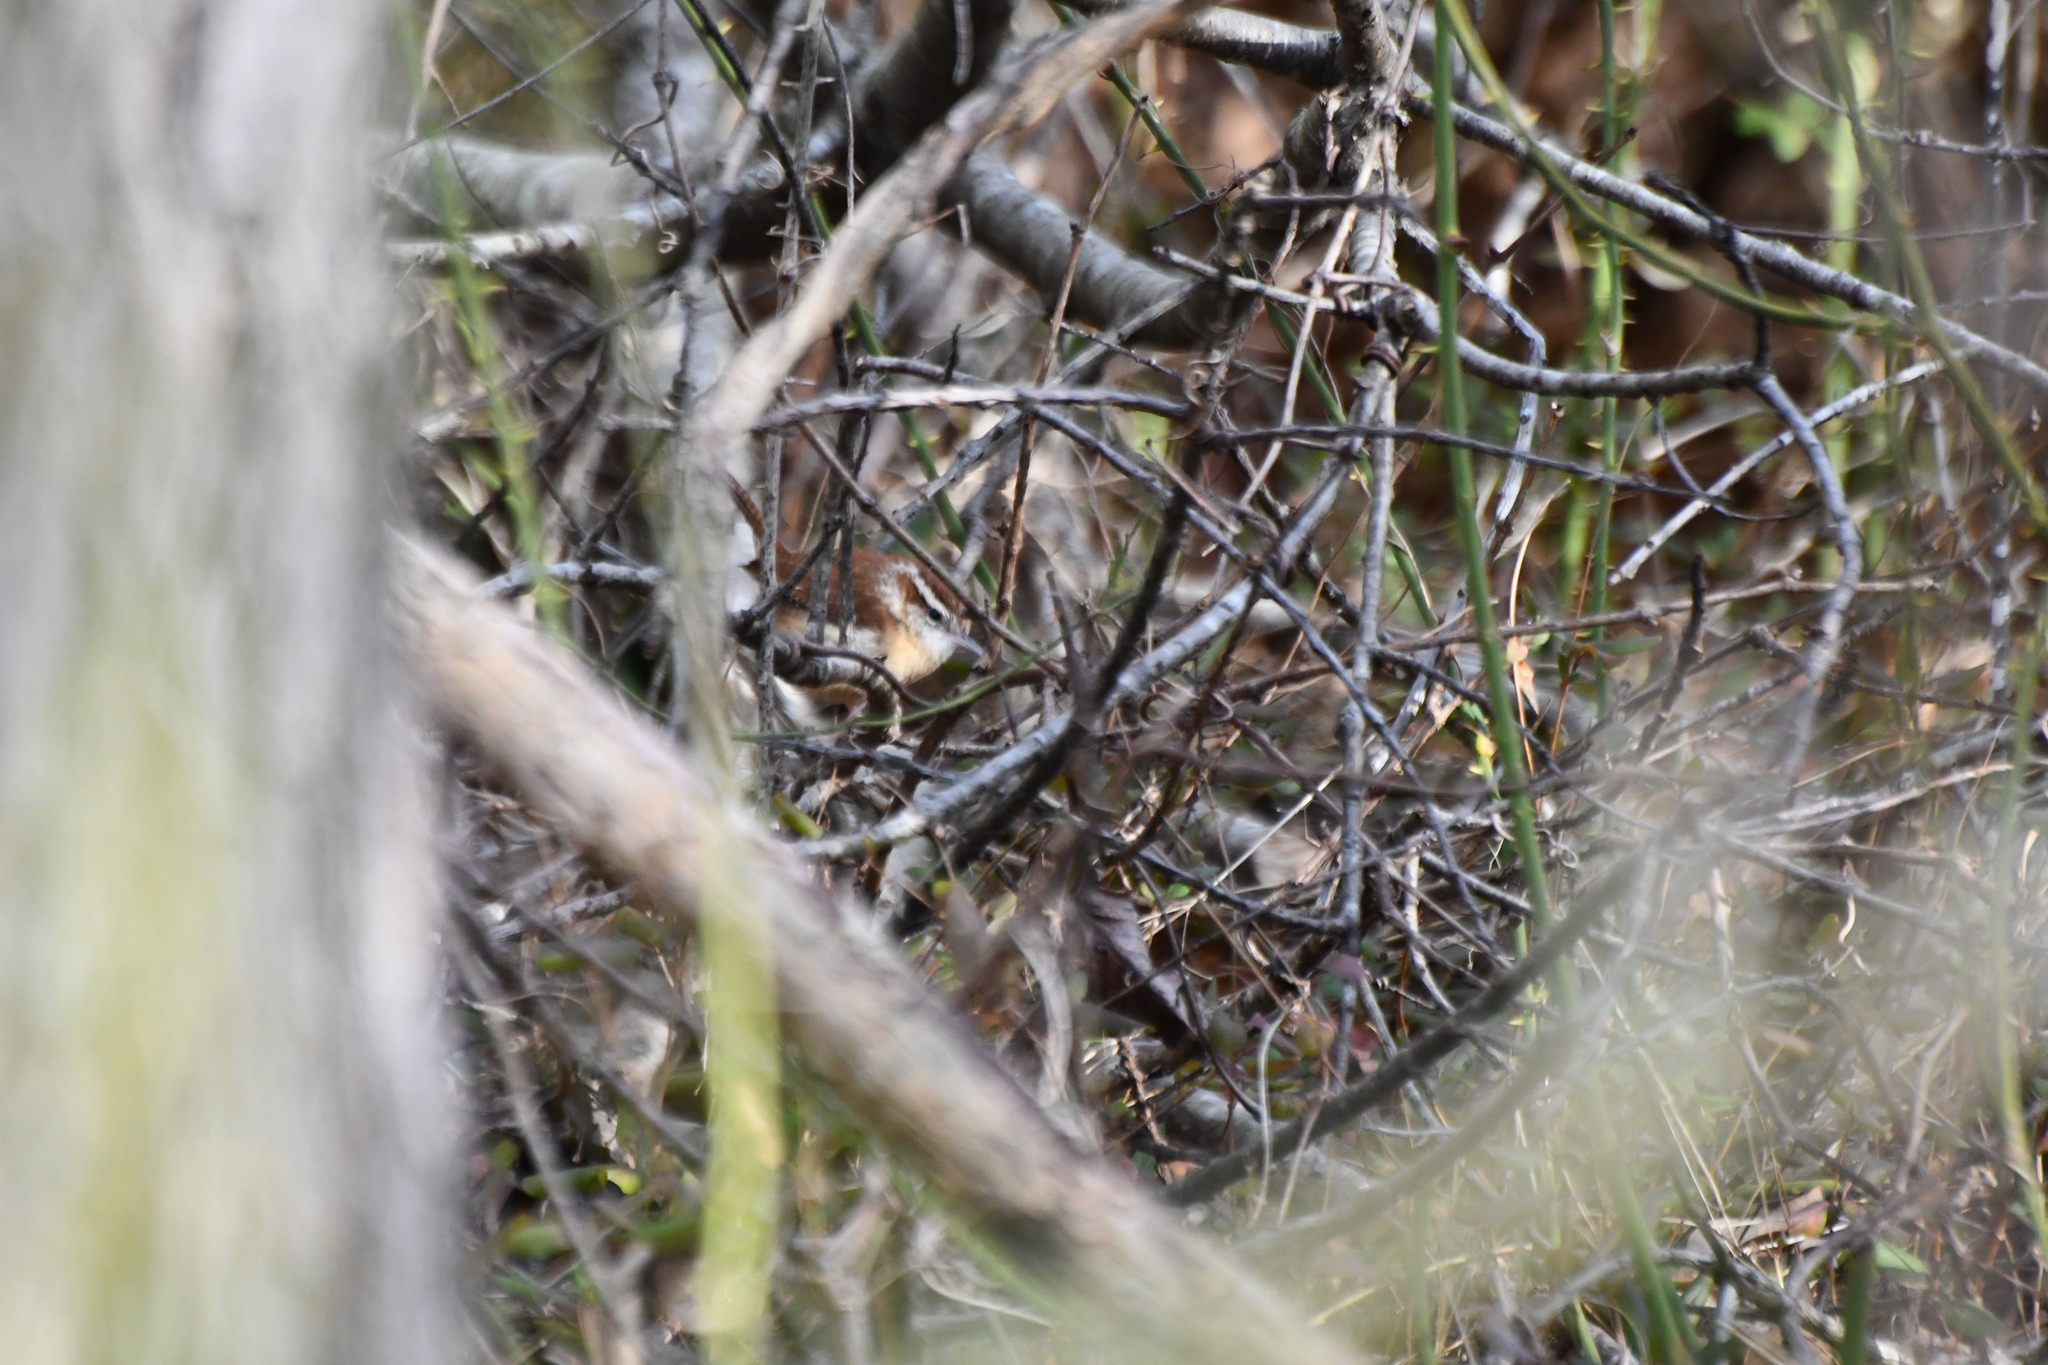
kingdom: Animalia
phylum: Chordata
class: Aves
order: Passeriformes
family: Troglodytidae
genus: Thryothorus
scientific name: Thryothorus ludovicianus
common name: Carolina wren
